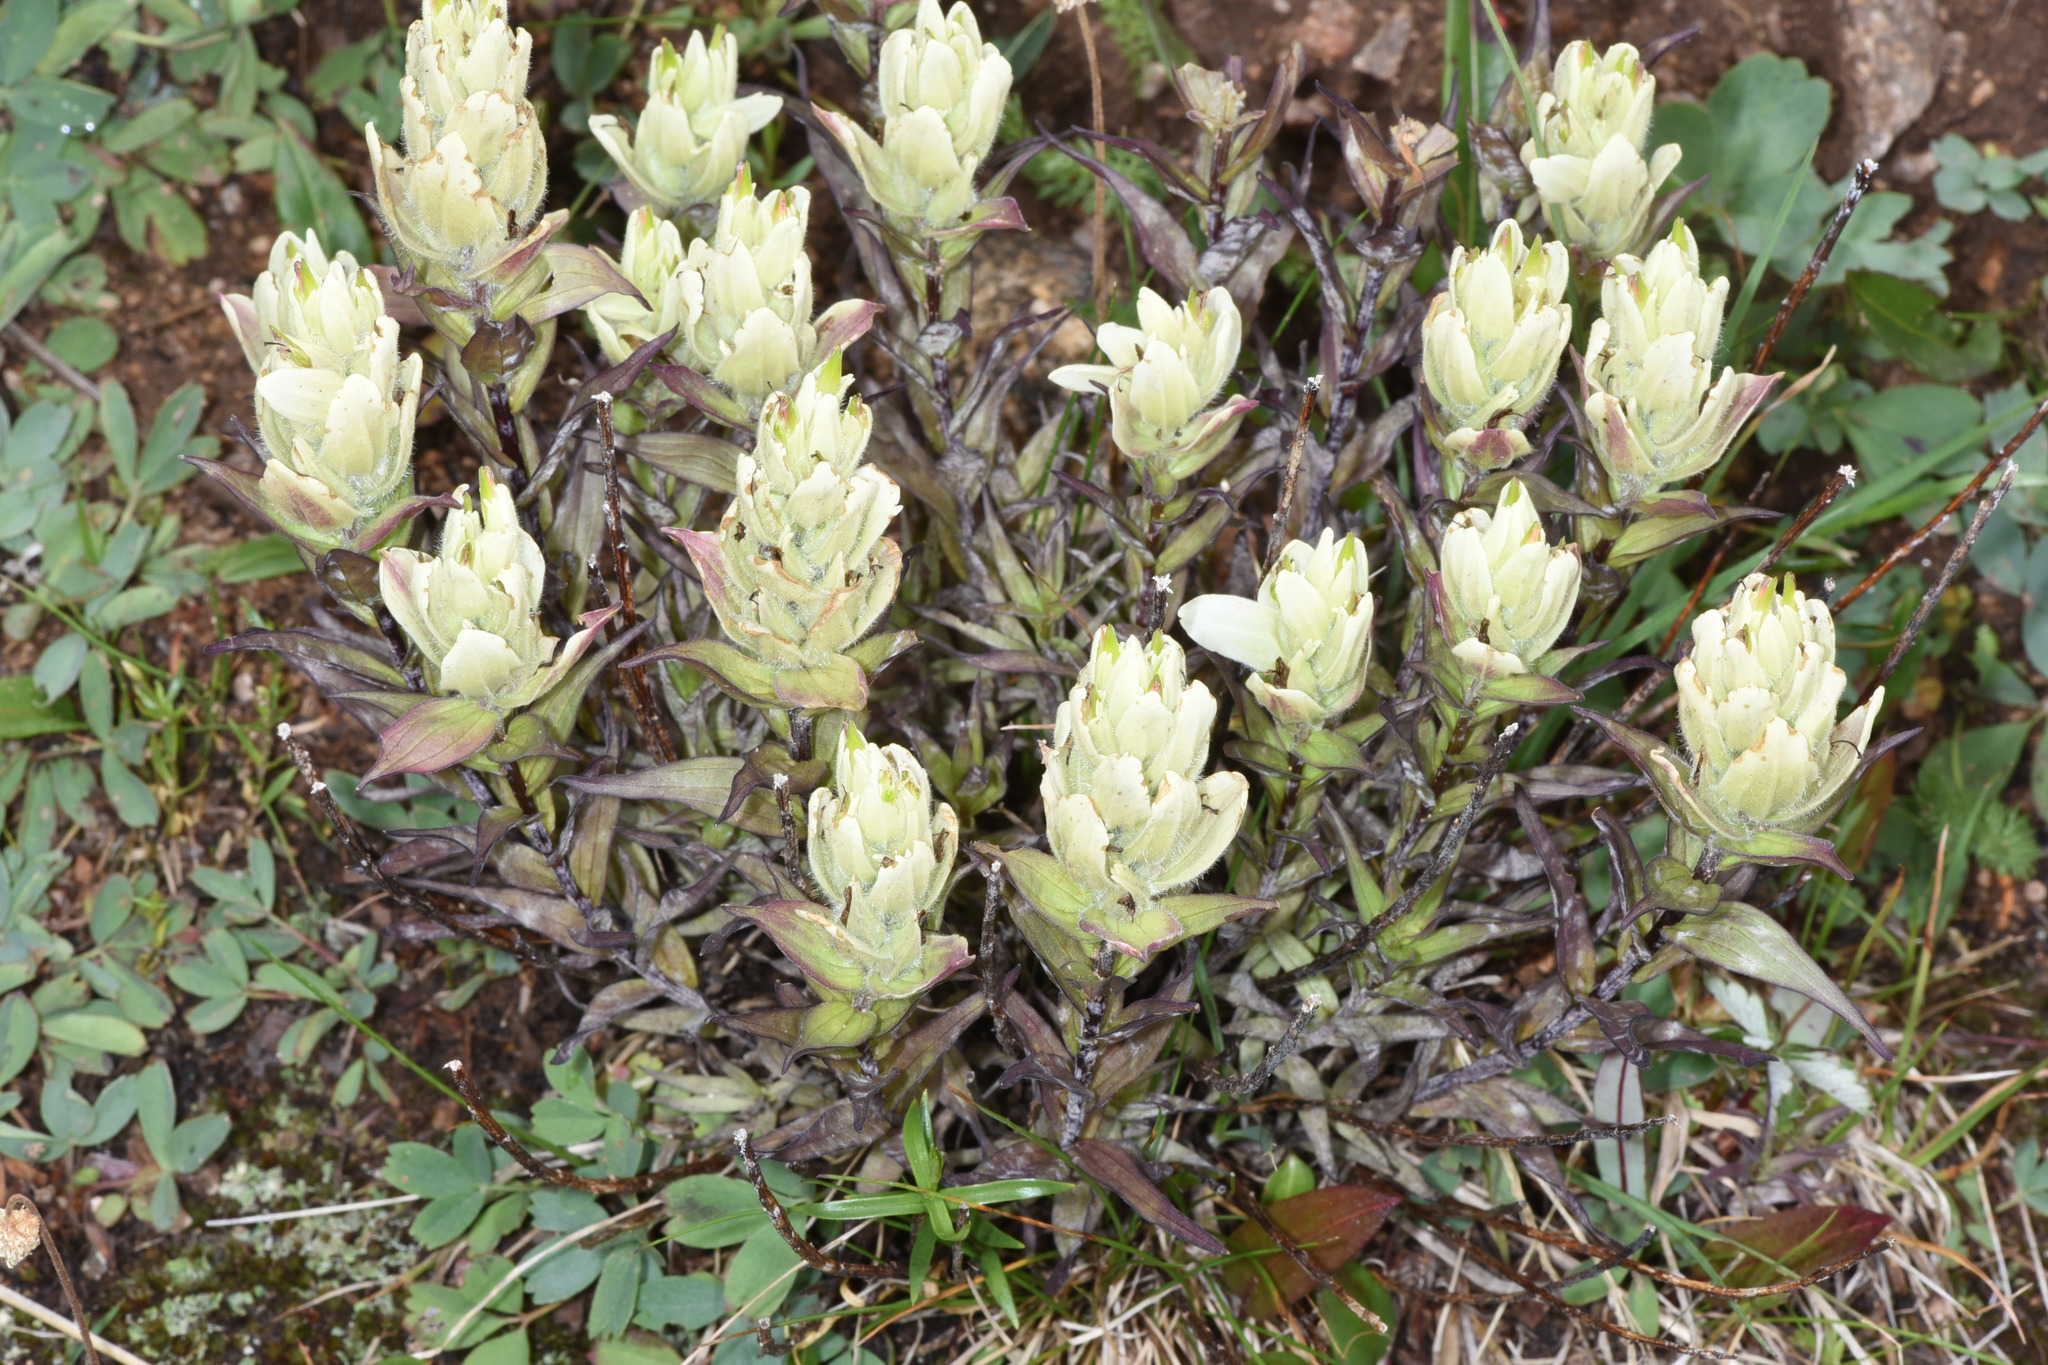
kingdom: Plantae
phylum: Tracheophyta
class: Magnoliopsida
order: Lamiales
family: Orobanchaceae
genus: Castilleja
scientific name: Castilleja occidentalis
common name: Western paintbrush
